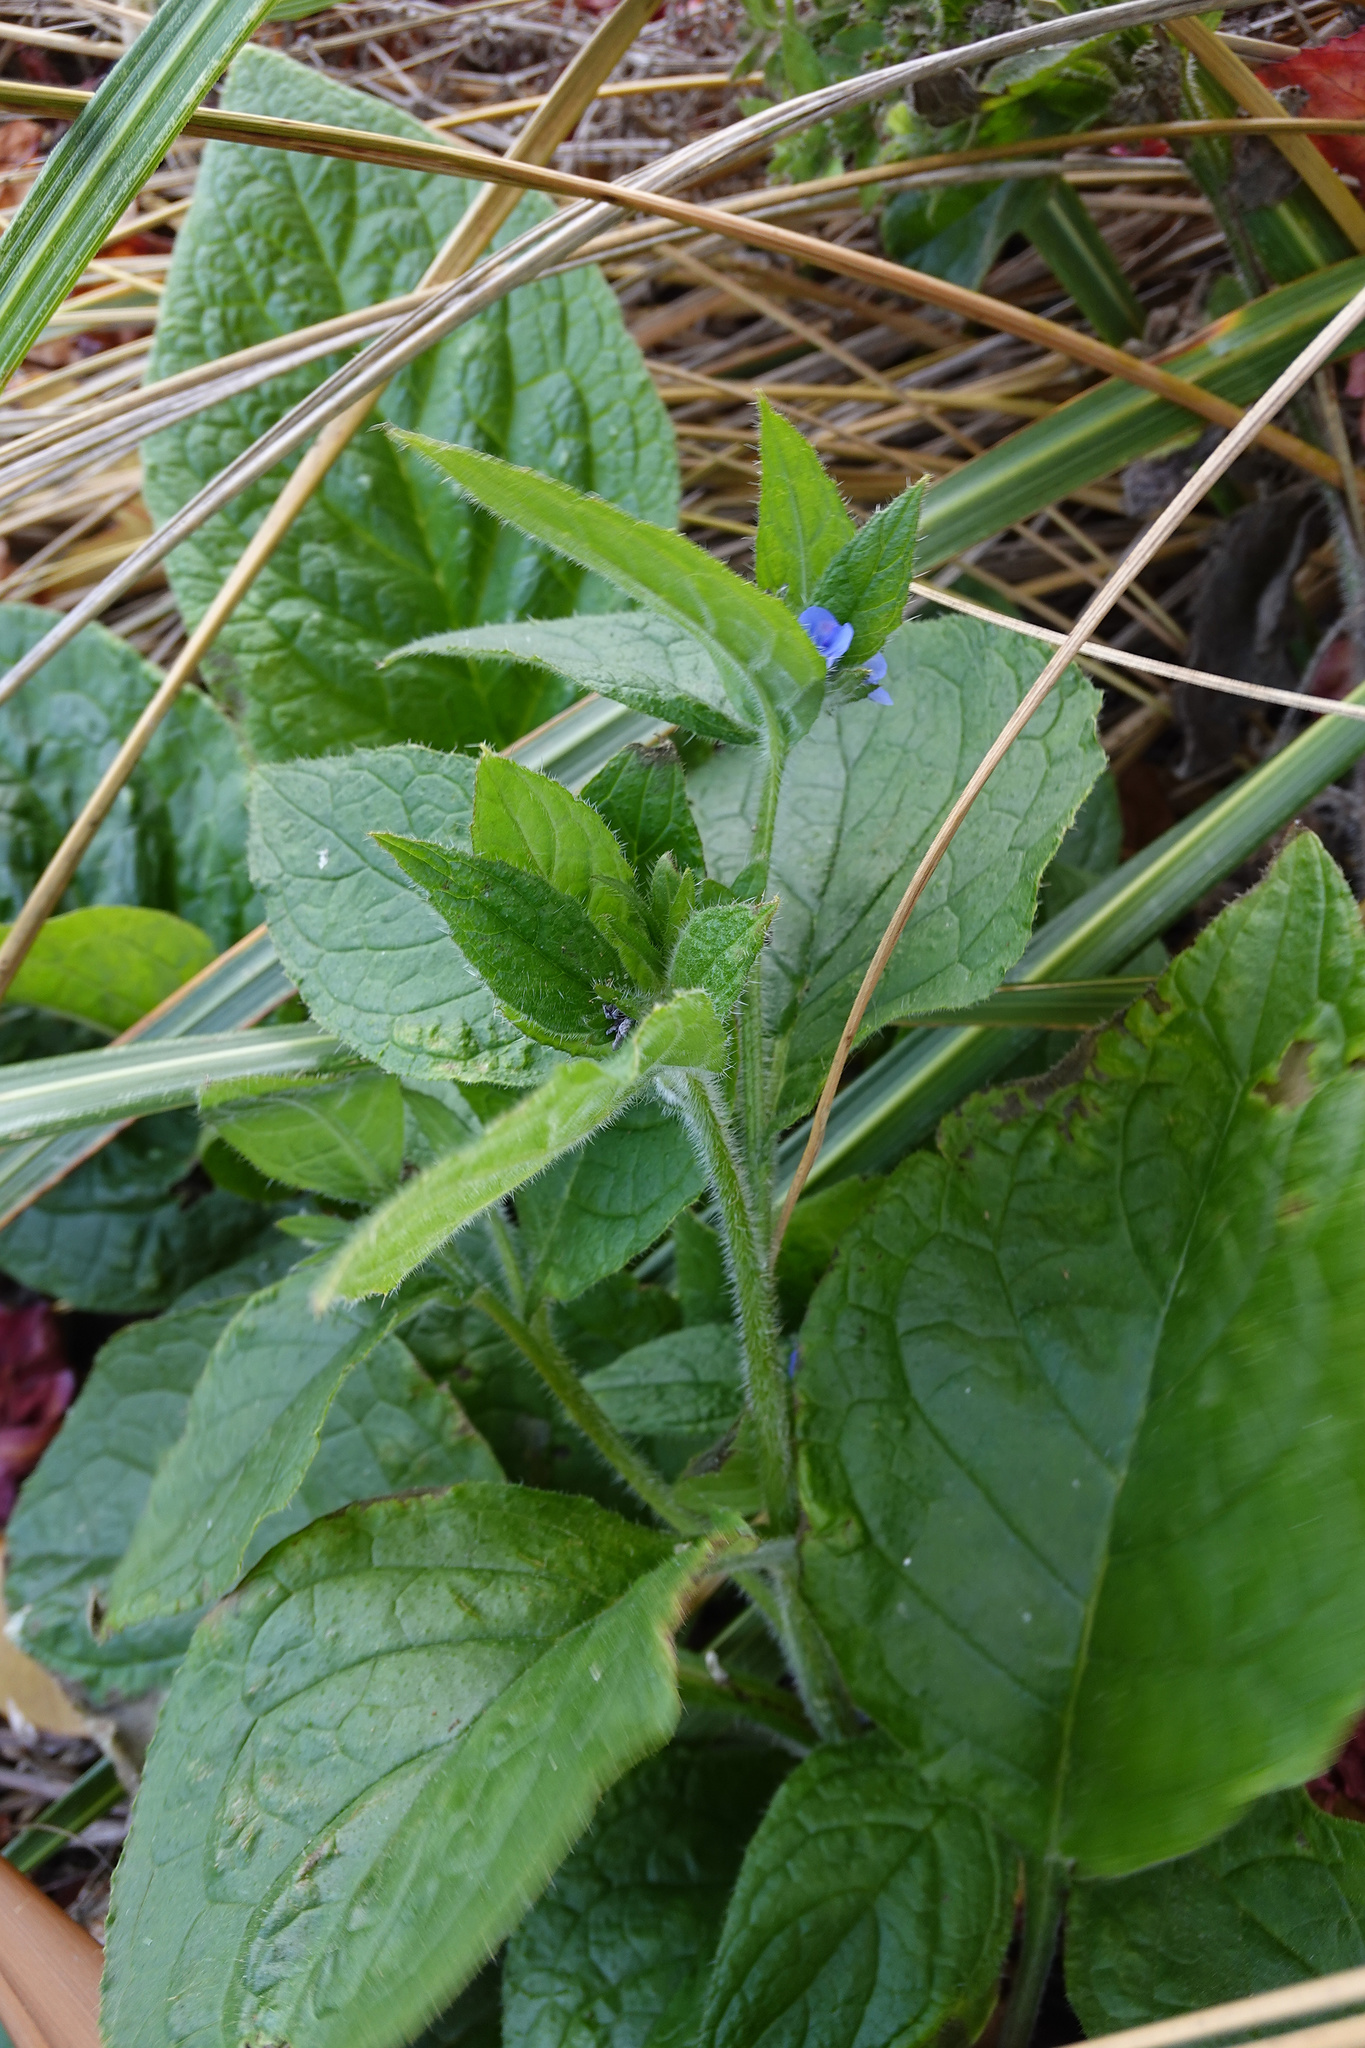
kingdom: Plantae
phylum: Tracheophyta
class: Magnoliopsida
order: Boraginales
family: Boraginaceae
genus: Pentaglottis
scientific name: Pentaglottis sempervirens
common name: Green alkanet
